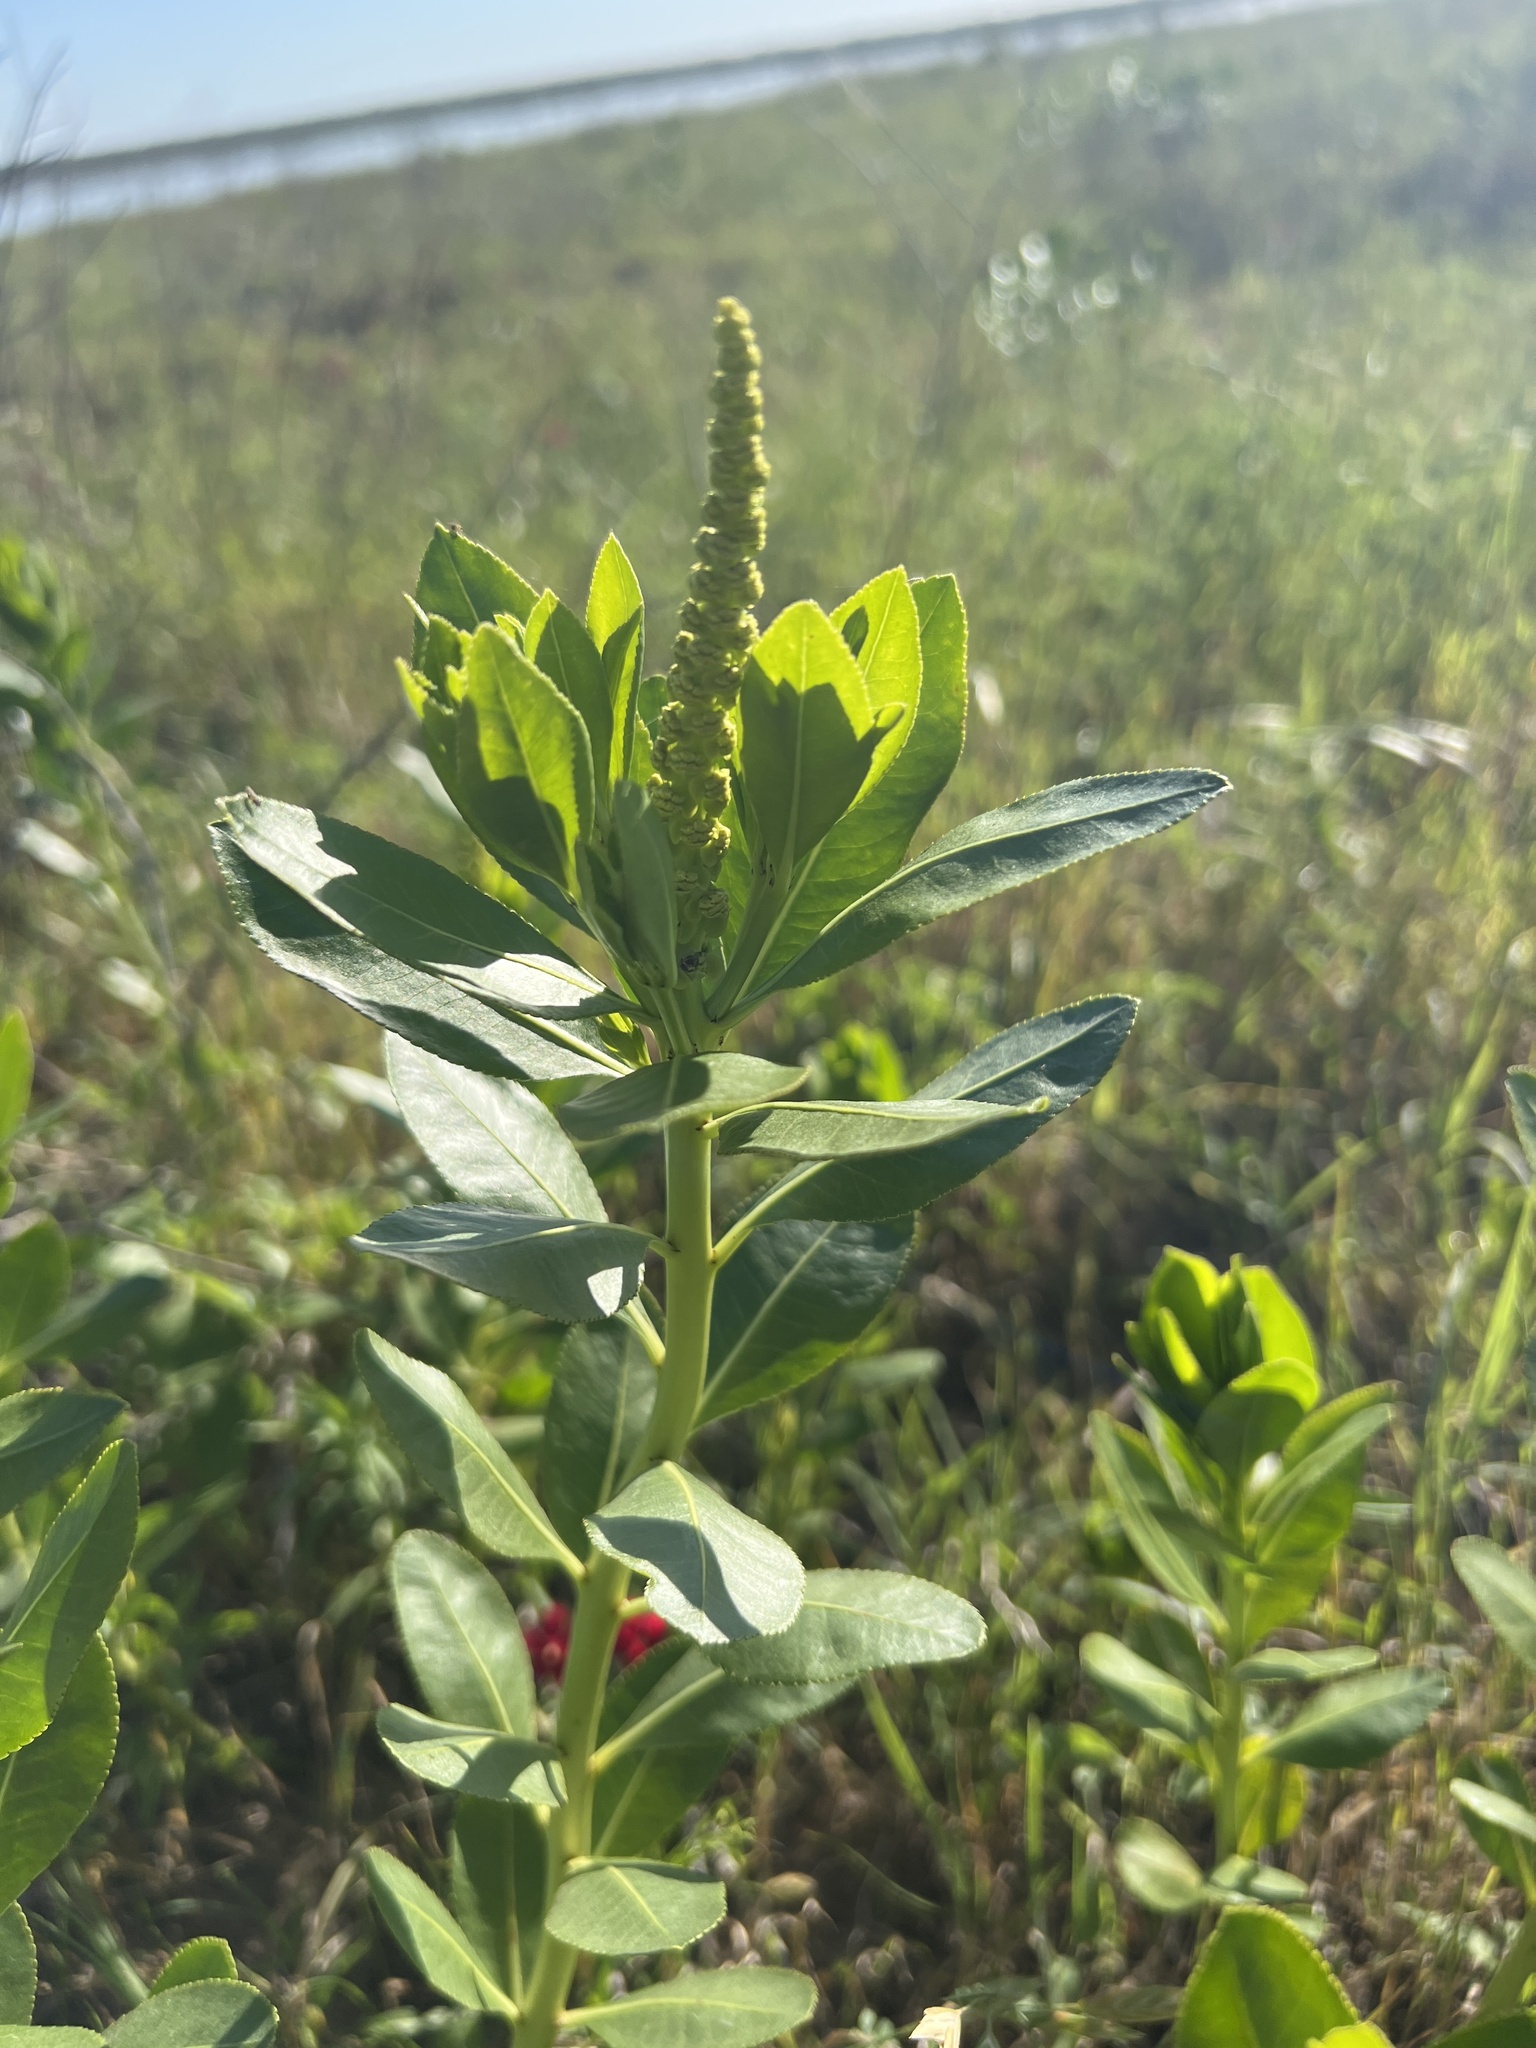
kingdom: Plantae
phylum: Tracheophyta
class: Magnoliopsida
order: Malpighiales
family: Euphorbiaceae
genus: Stillingia
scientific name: Stillingia sylvatica
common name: Queen's-delight
